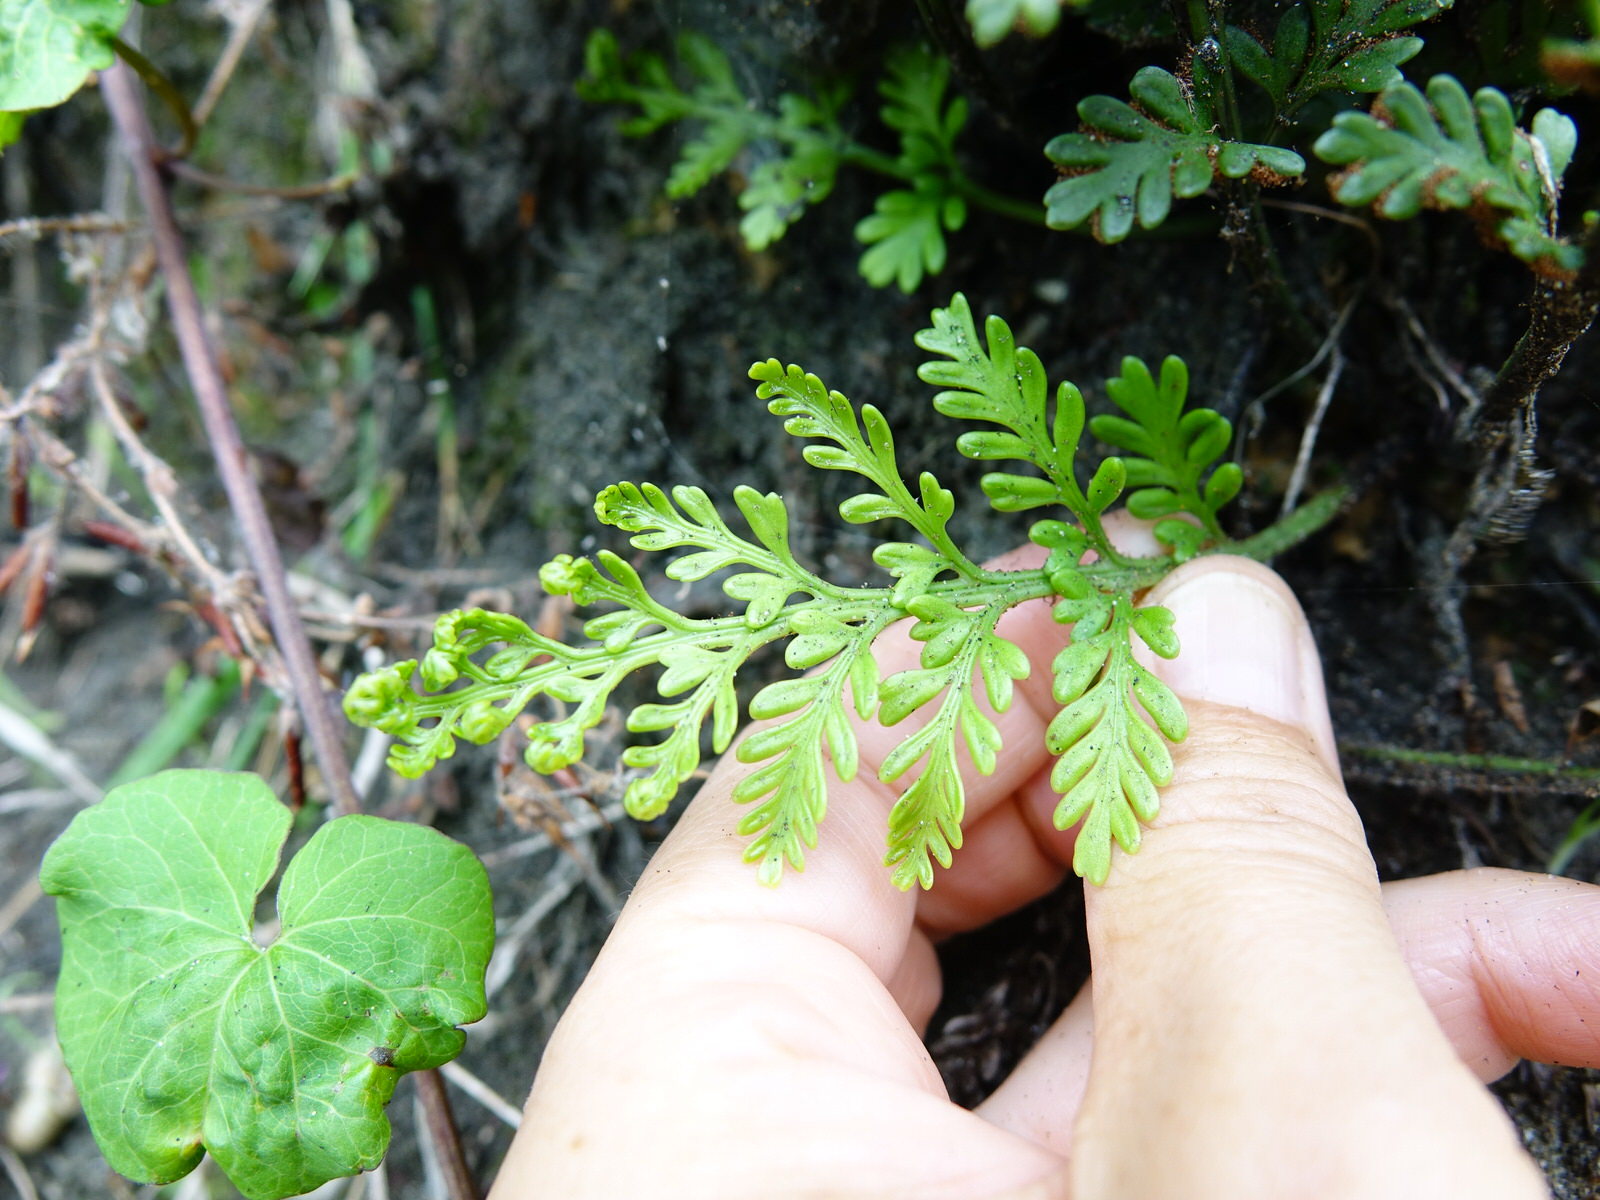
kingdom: Plantae
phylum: Tracheophyta
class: Polypodiopsida
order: Polypodiales
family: Aspleniaceae
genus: Asplenium
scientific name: Asplenium appendiculatum
